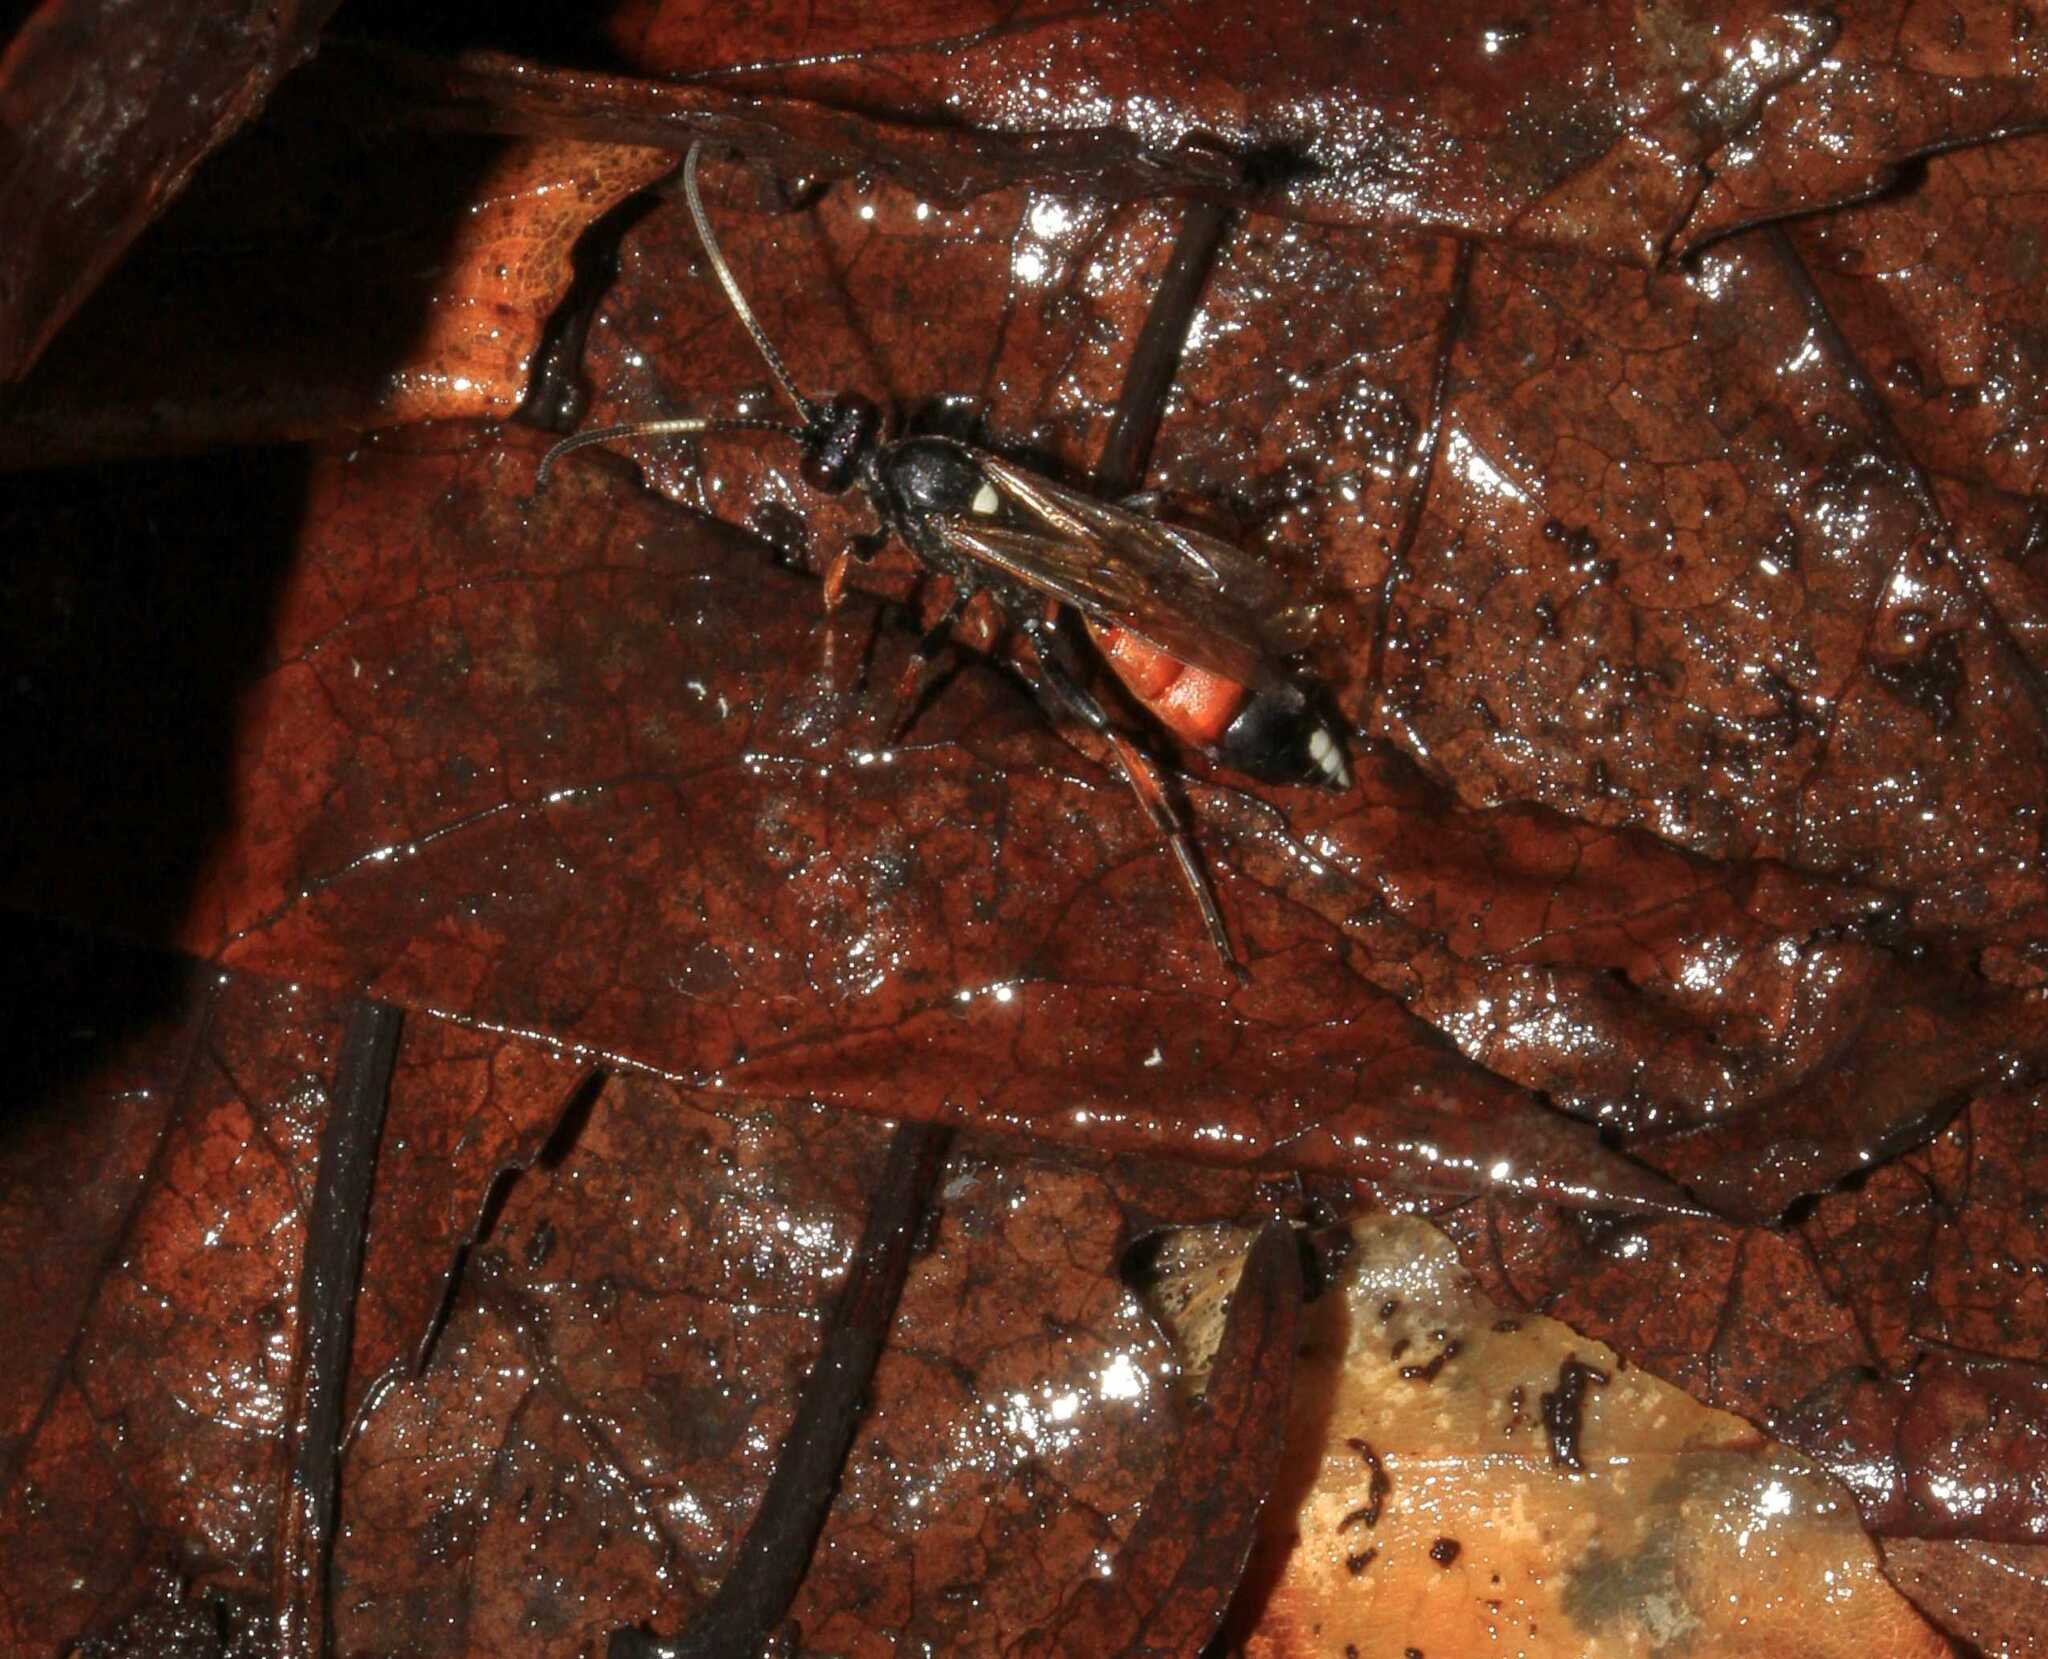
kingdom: Animalia
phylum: Arthropoda
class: Insecta
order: Hymenoptera
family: Ichneumonidae
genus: Ichneumon
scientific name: Ichneumon suspiciosus
